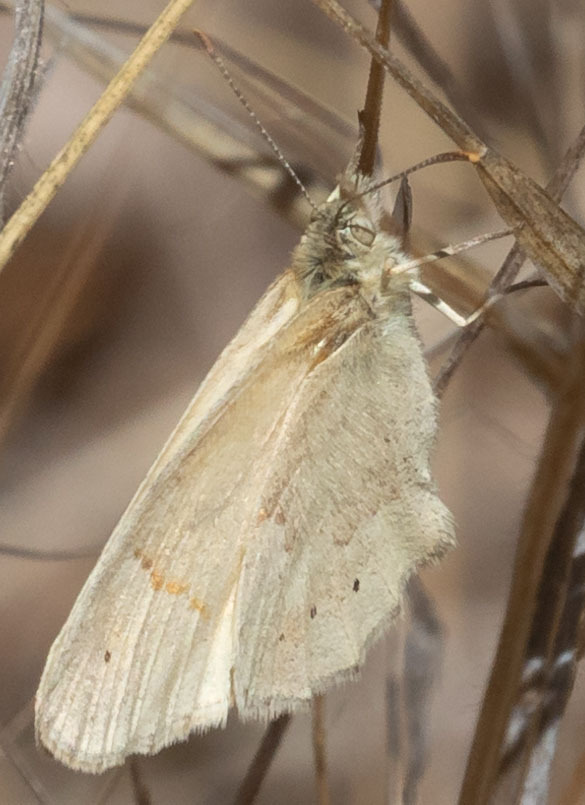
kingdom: Animalia
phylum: Arthropoda
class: Insecta
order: Lepidoptera
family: Nymphalidae
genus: Coenonympha
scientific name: Coenonympha california
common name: Common ringlet
